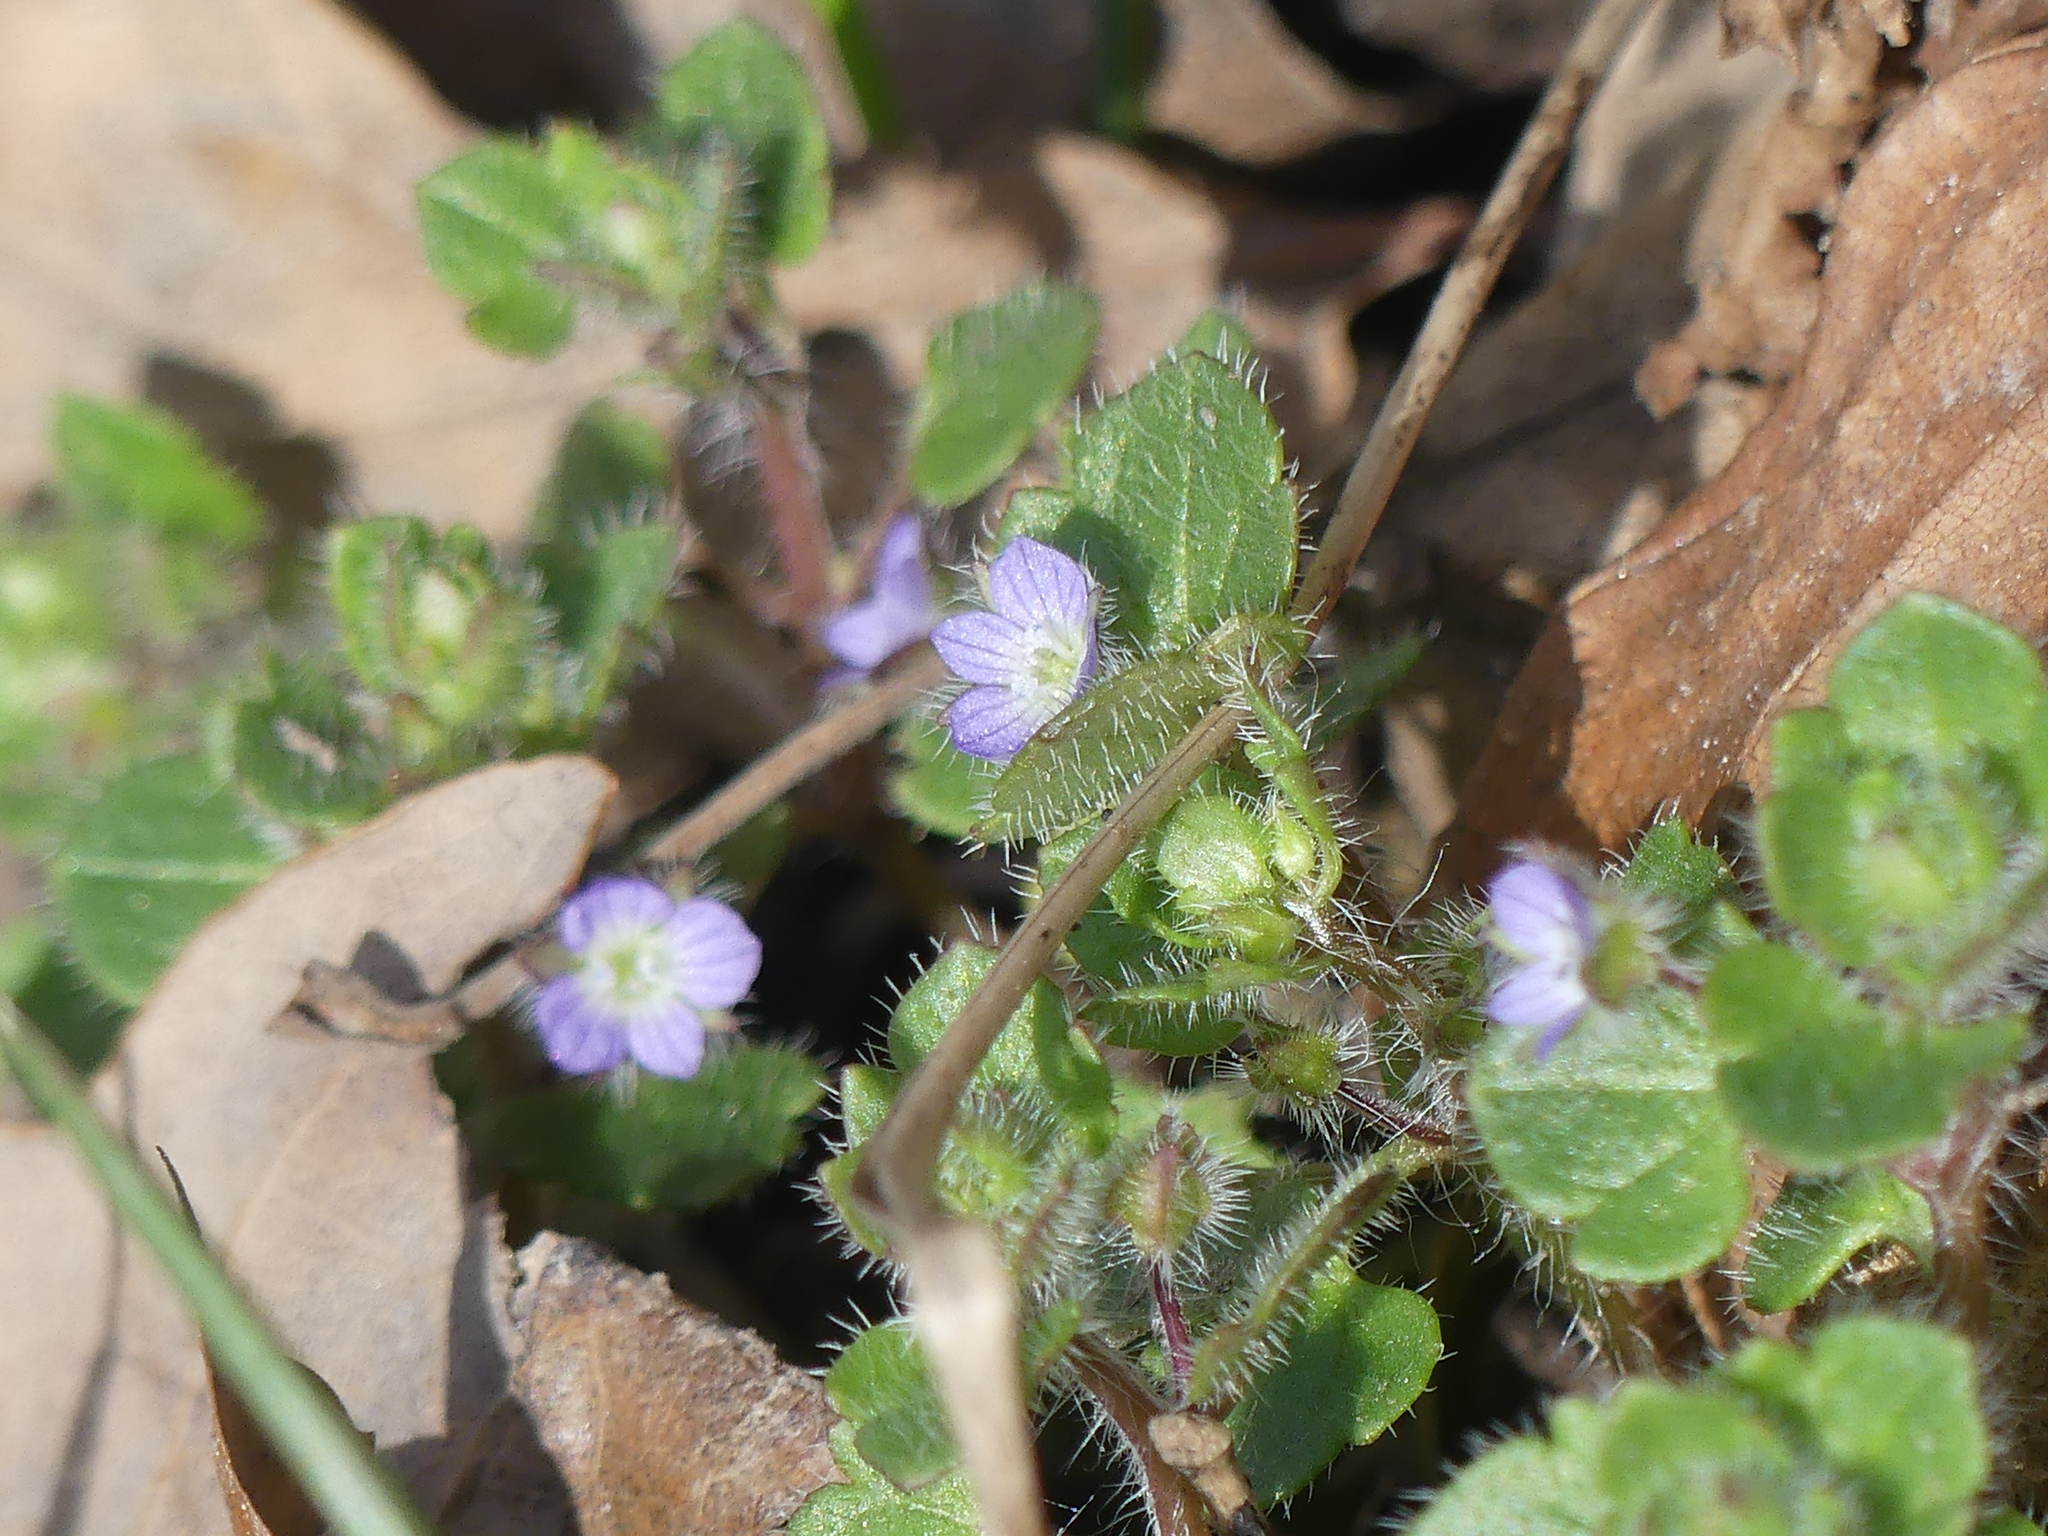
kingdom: Plantae
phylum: Tracheophyta
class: Magnoliopsida
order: Lamiales
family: Plantaginaceae
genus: Veronica
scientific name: Veronica hederifolia
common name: Ivy-leaved speedwell
